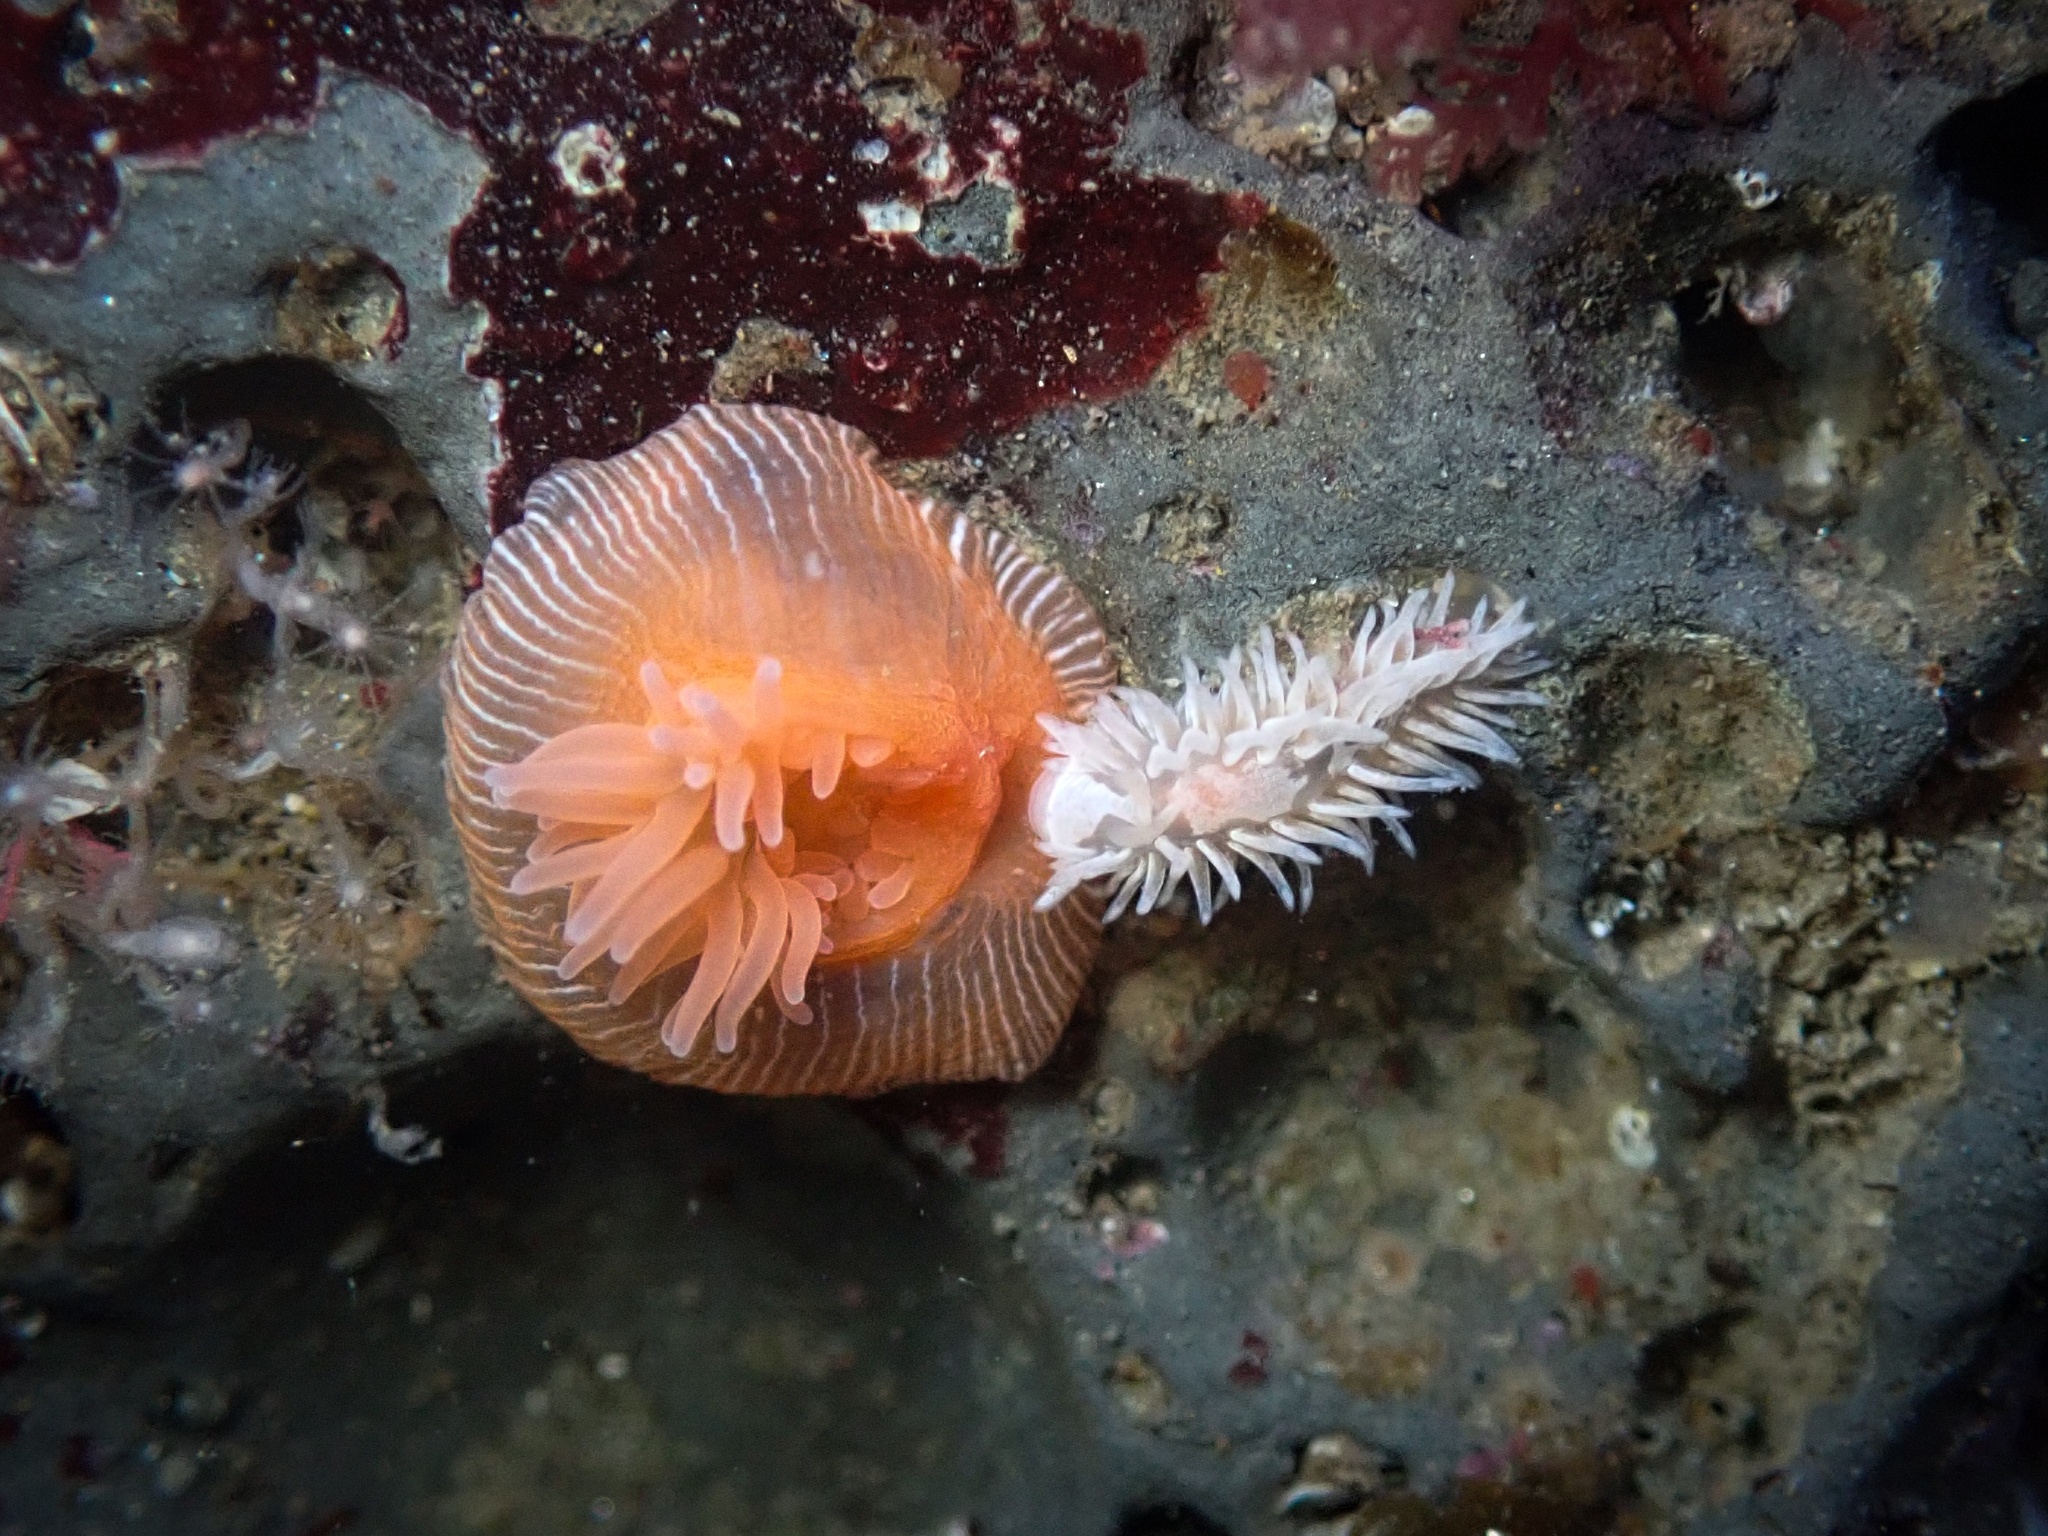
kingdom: Animalia
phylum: Mollusca
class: Gastropoda
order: Nudibranchia
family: Aeolidiidae
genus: Aeolidia
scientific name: Aeolidia loui
